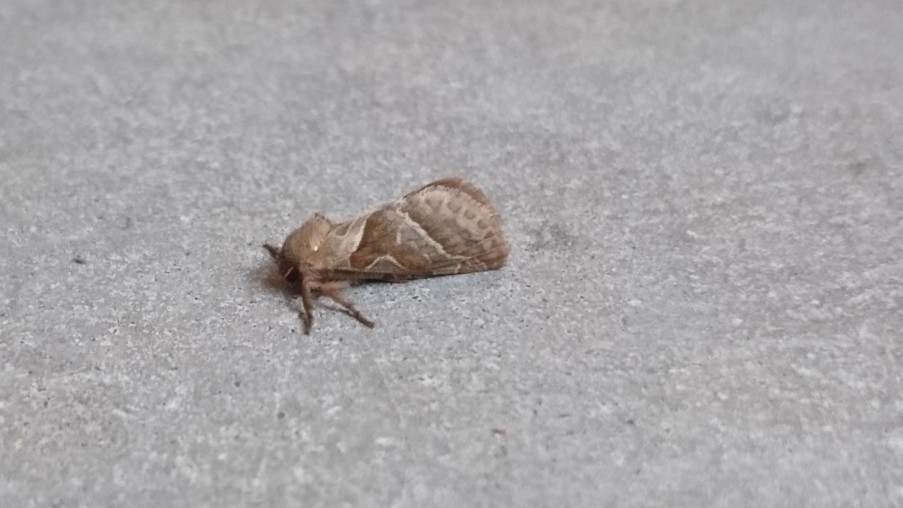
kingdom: Animalia
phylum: Arthropoda
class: Insecta
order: Lepidoptera
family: Hepialidae
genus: Triodia
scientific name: Triodia sylvina
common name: Orange swift
